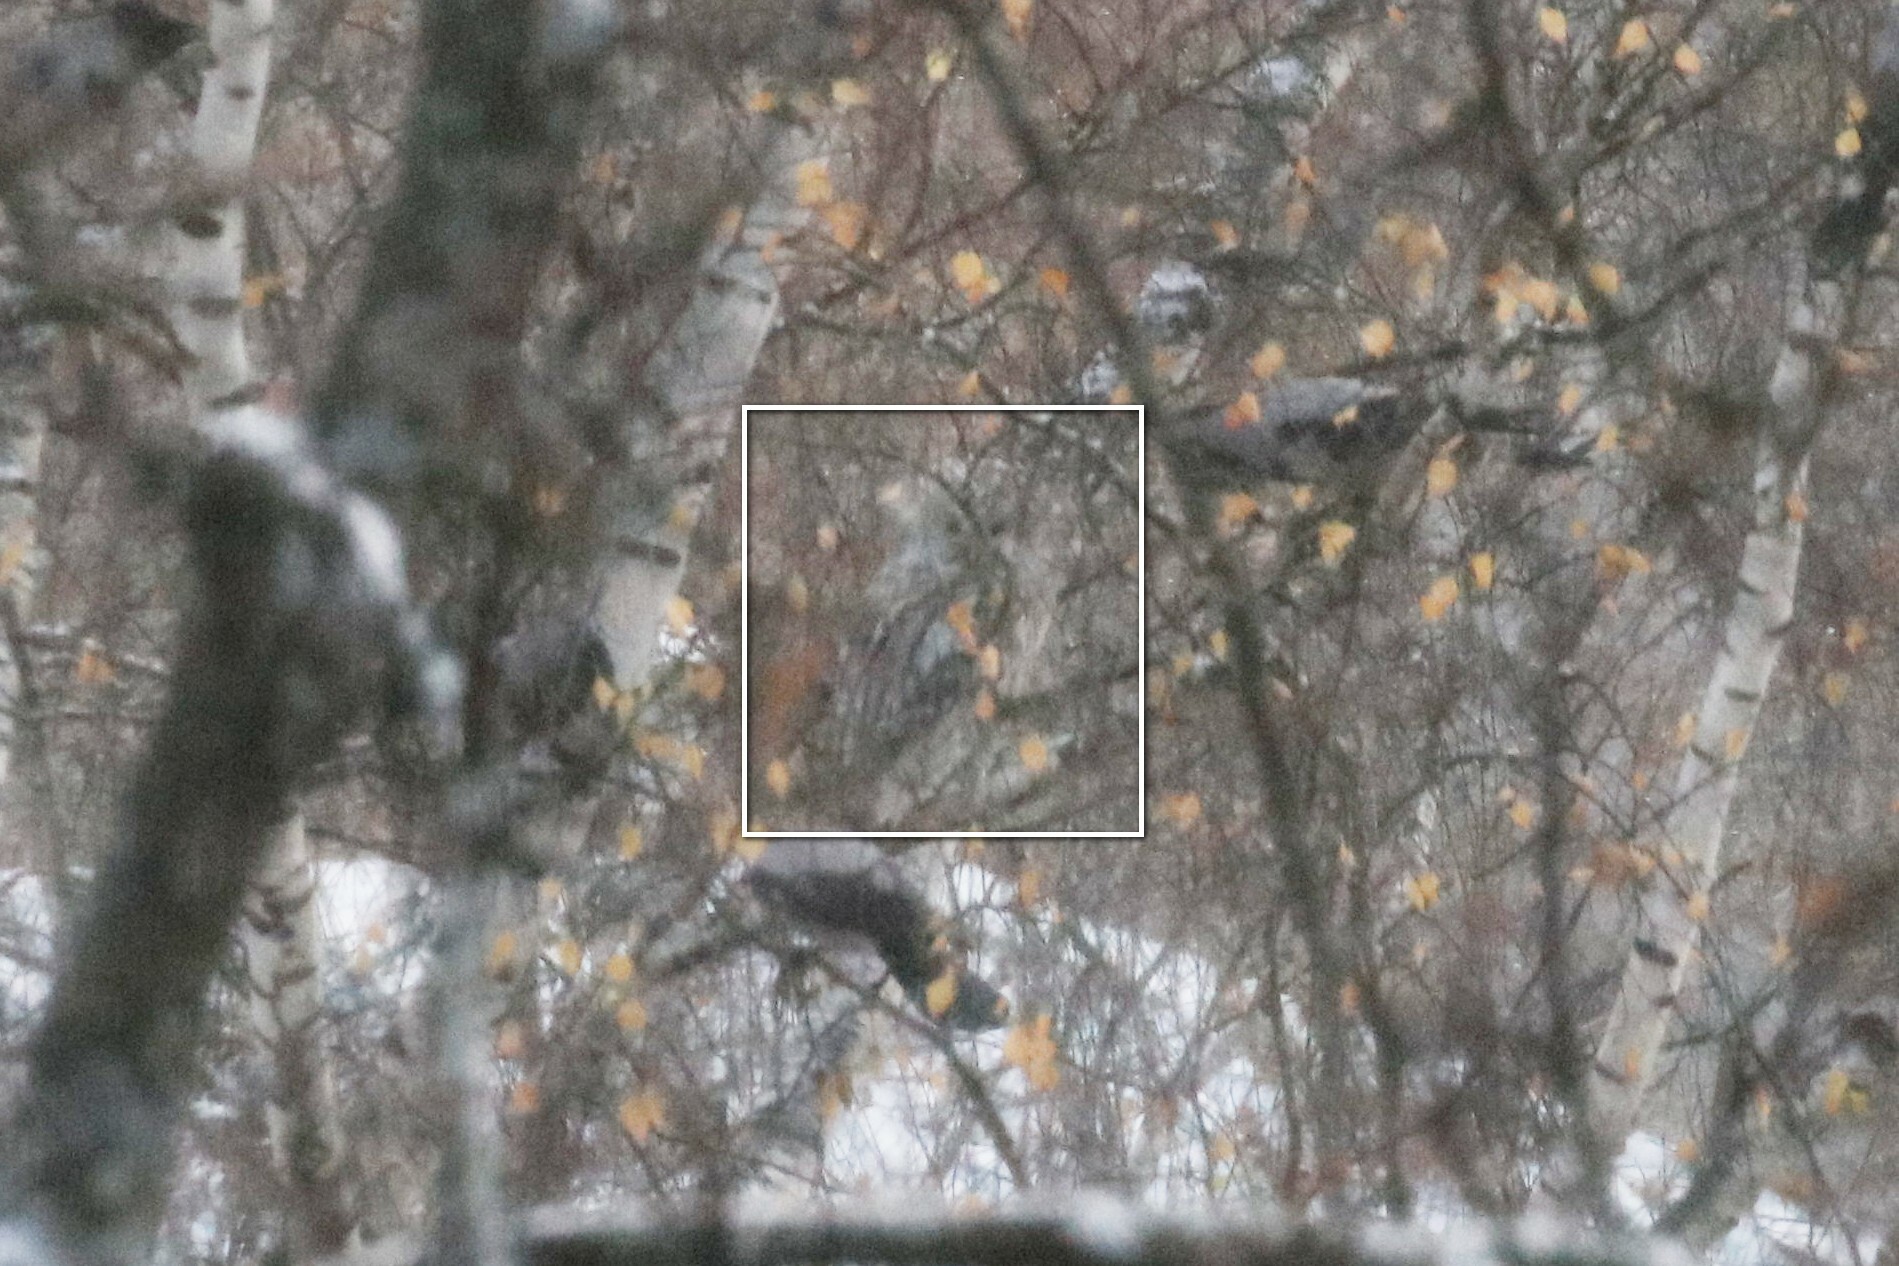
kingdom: Animalia
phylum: Chordata
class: Aves
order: Strigiformes
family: Strigidae
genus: Strix
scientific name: Strix uralensis
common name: Ural owl
